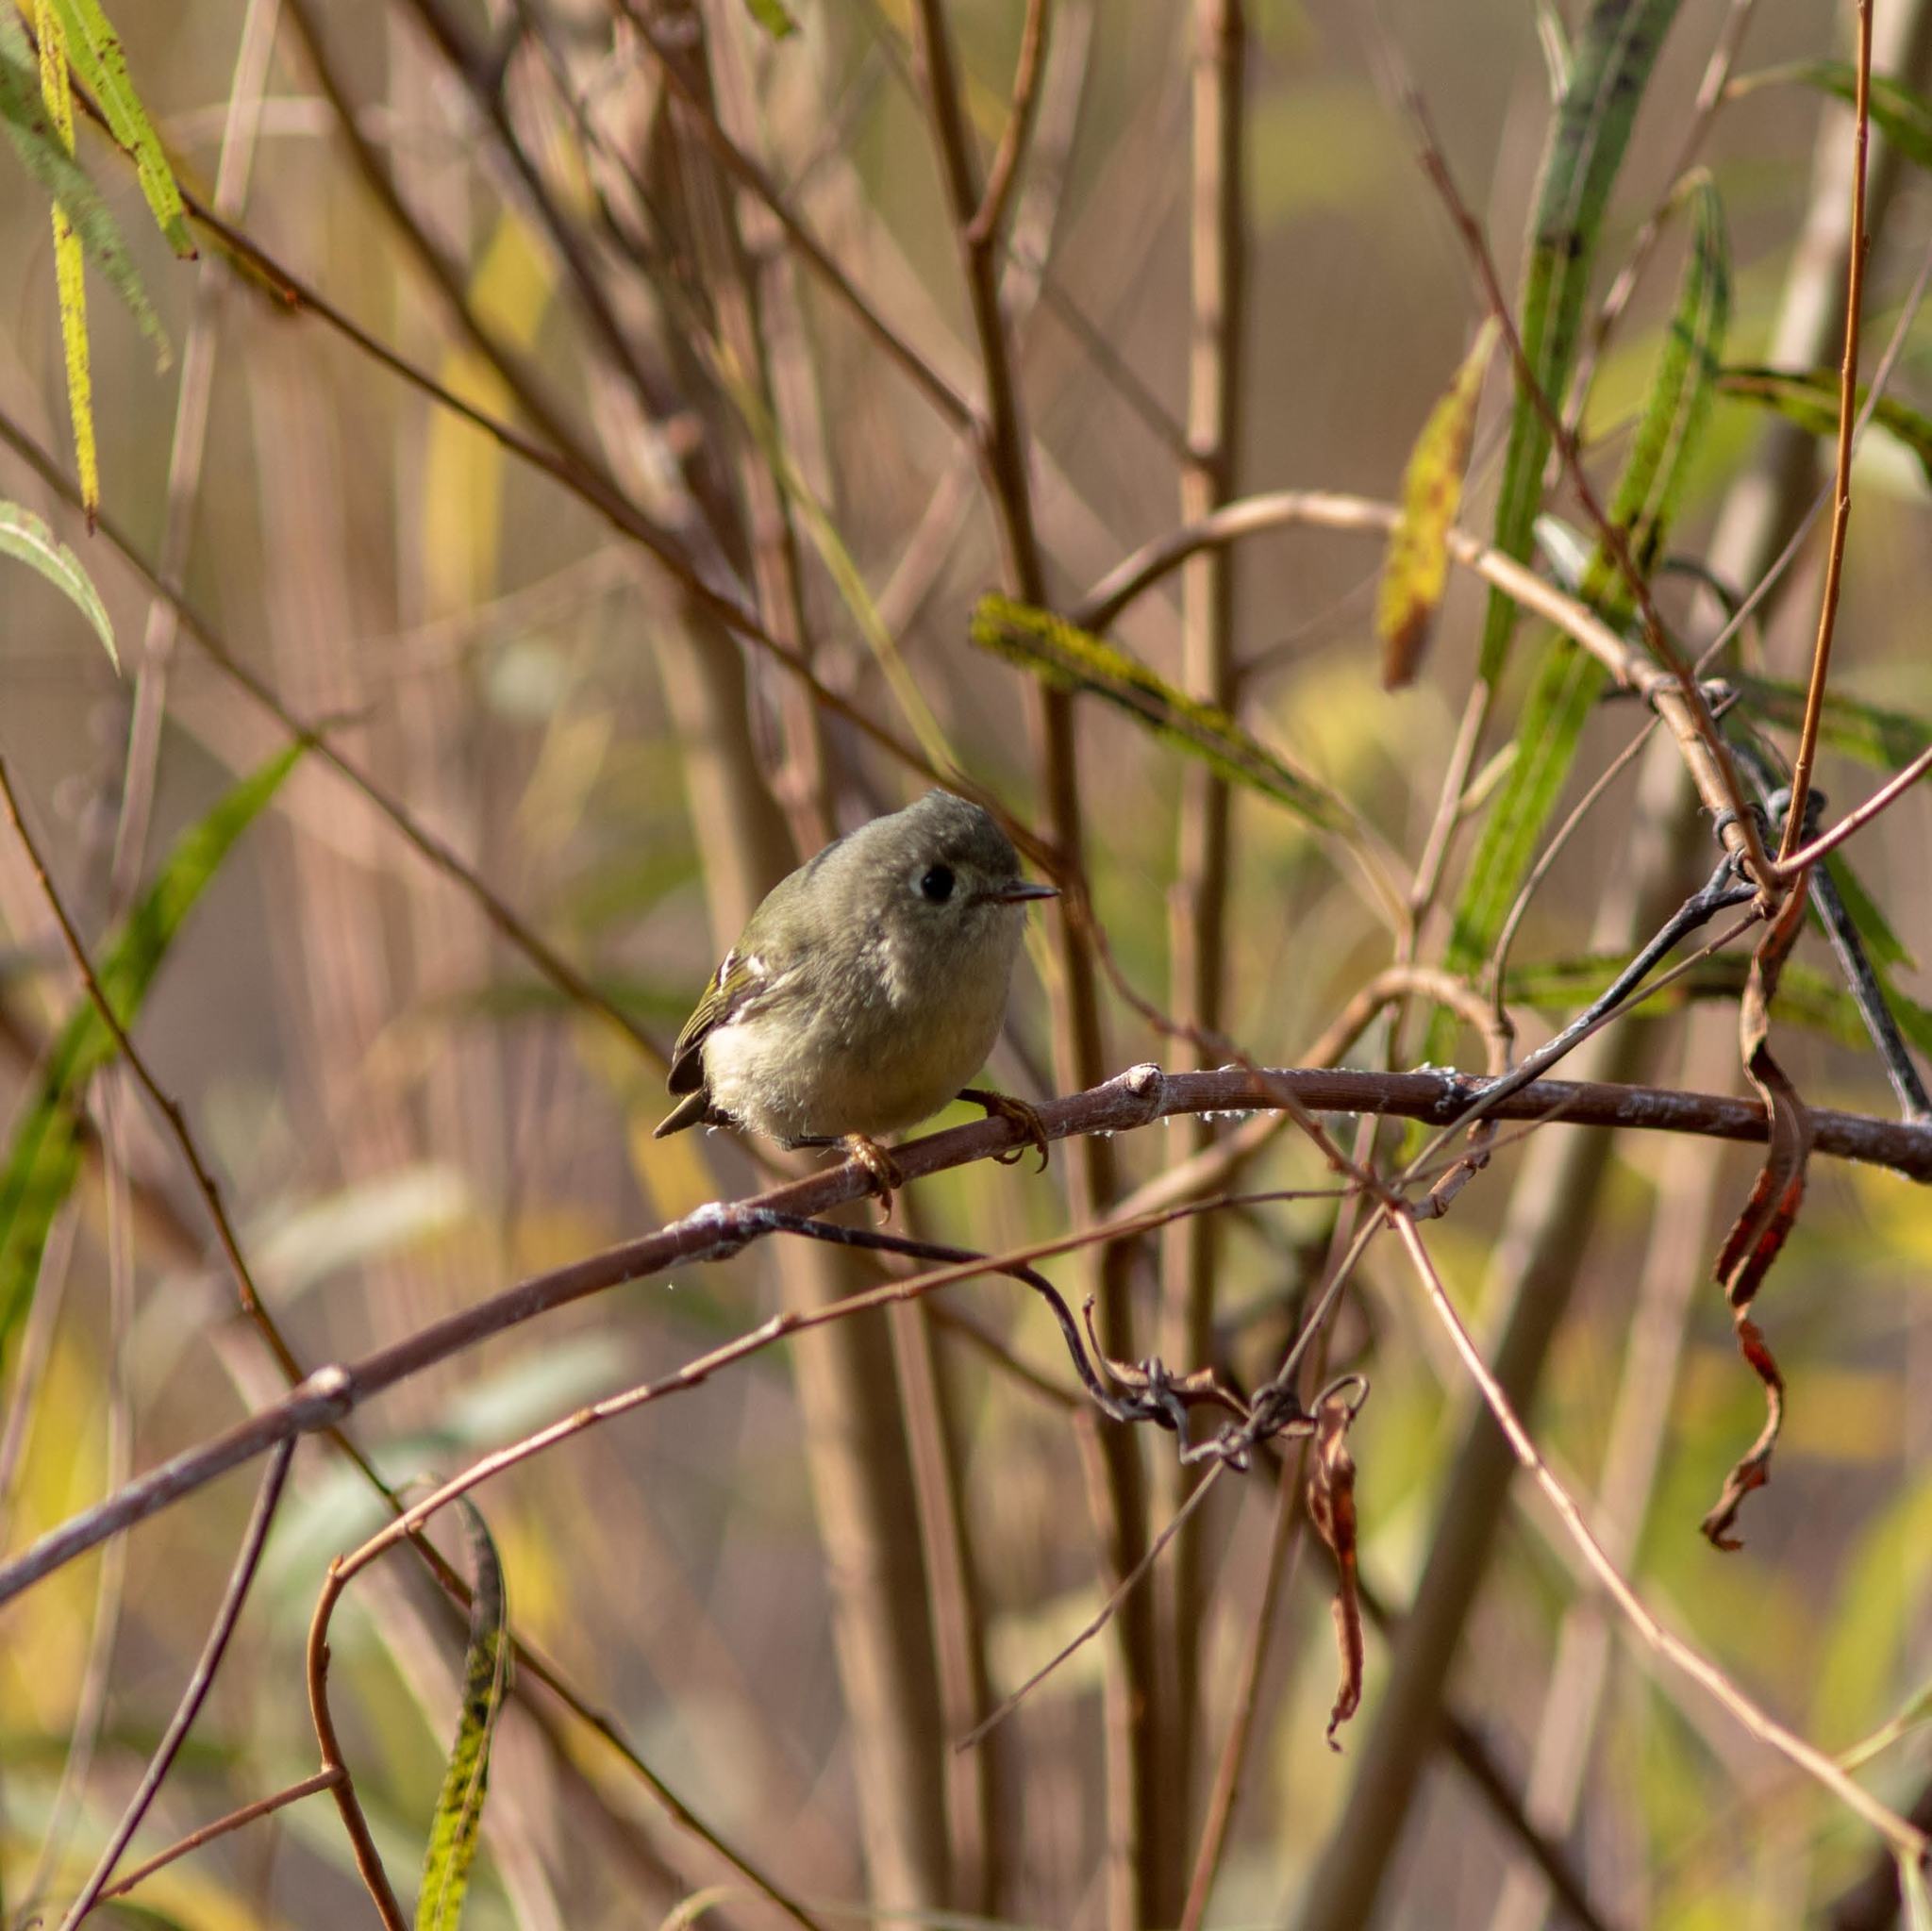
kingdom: Animalia
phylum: Chordata
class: Aves
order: Passeriformes
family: Regulidae
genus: Regulus
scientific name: Regulus calendula
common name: Ruby-crowned kinglet
